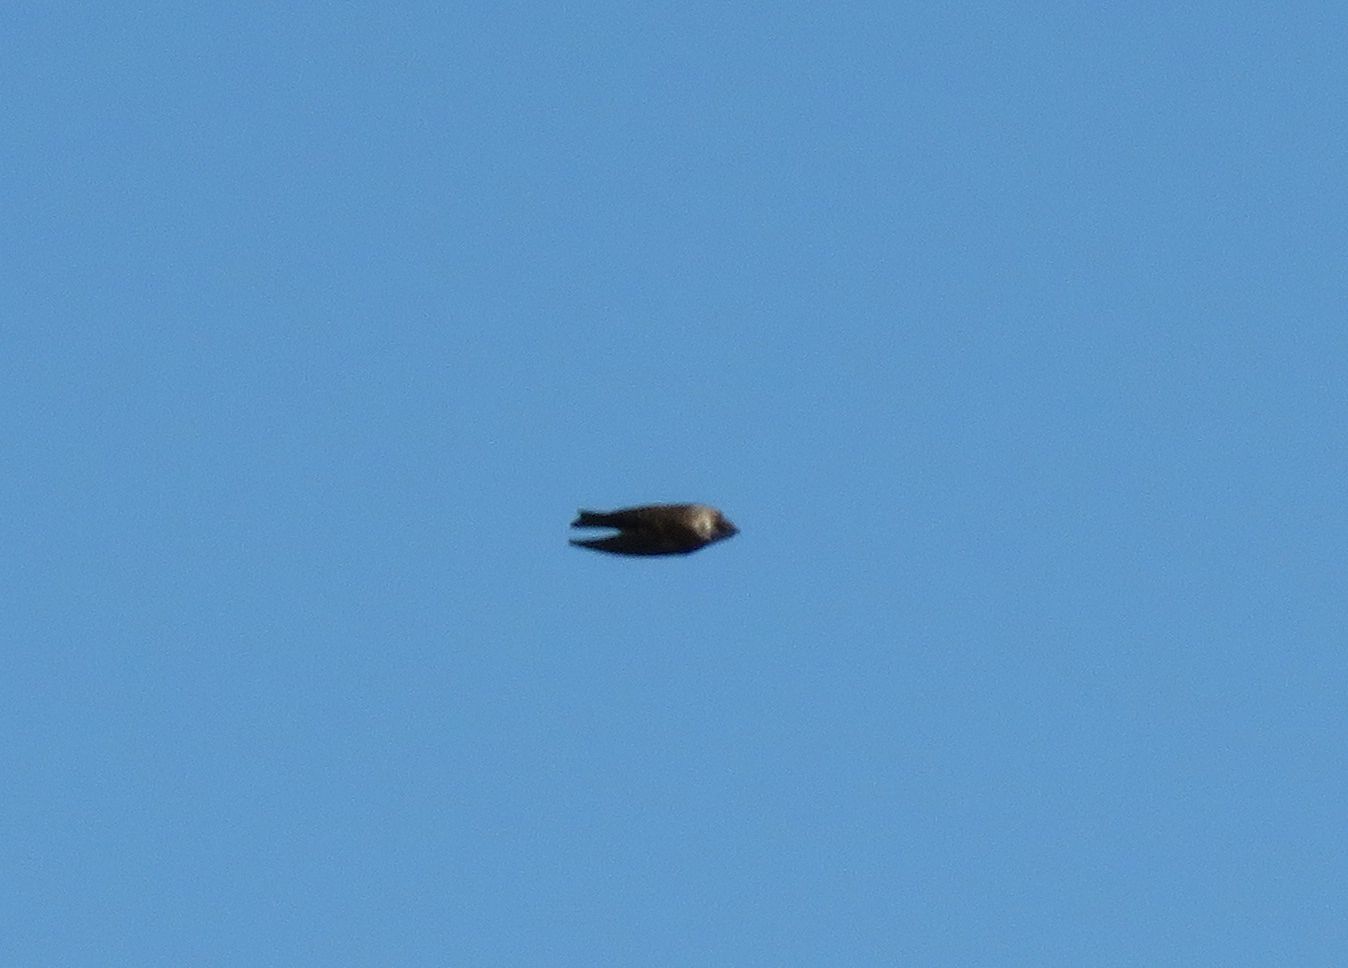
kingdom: Animalia
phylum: Chordata
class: Aves
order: Passeriformes
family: Hirundinidae
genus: Progne
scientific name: Progne tapera
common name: Brown-chested martin
